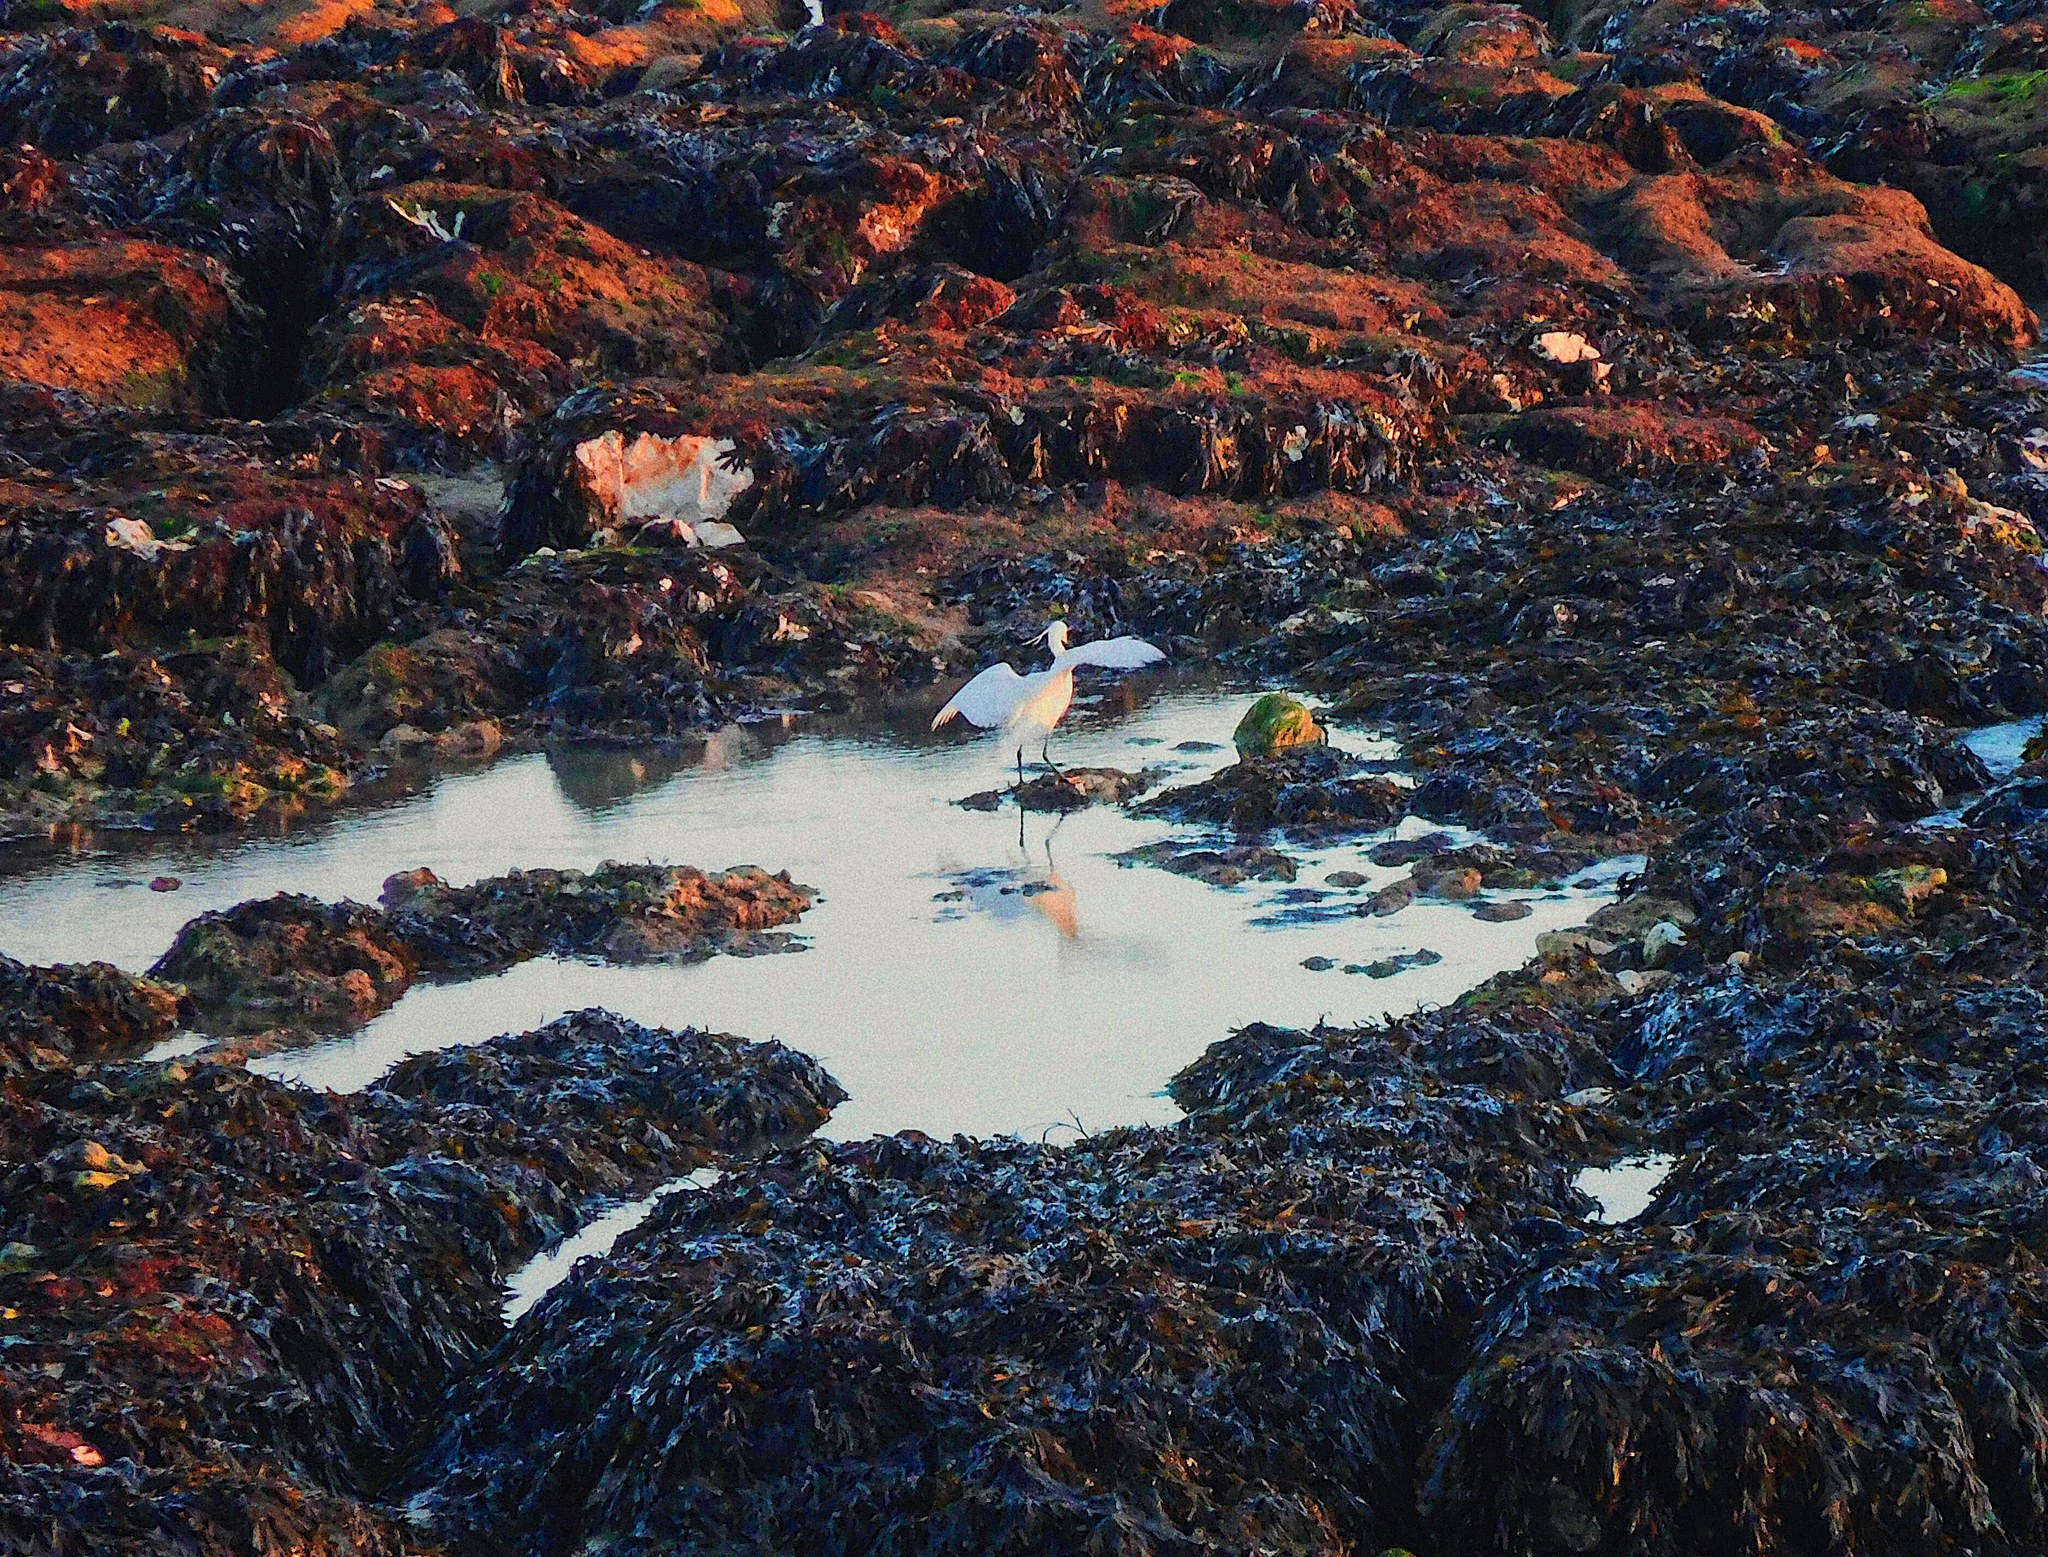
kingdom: Animalia
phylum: Chordata
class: Aves
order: Pelecaniformes
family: Ardeidae
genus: Egretta
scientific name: Egretta garzetta
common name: Little egret
